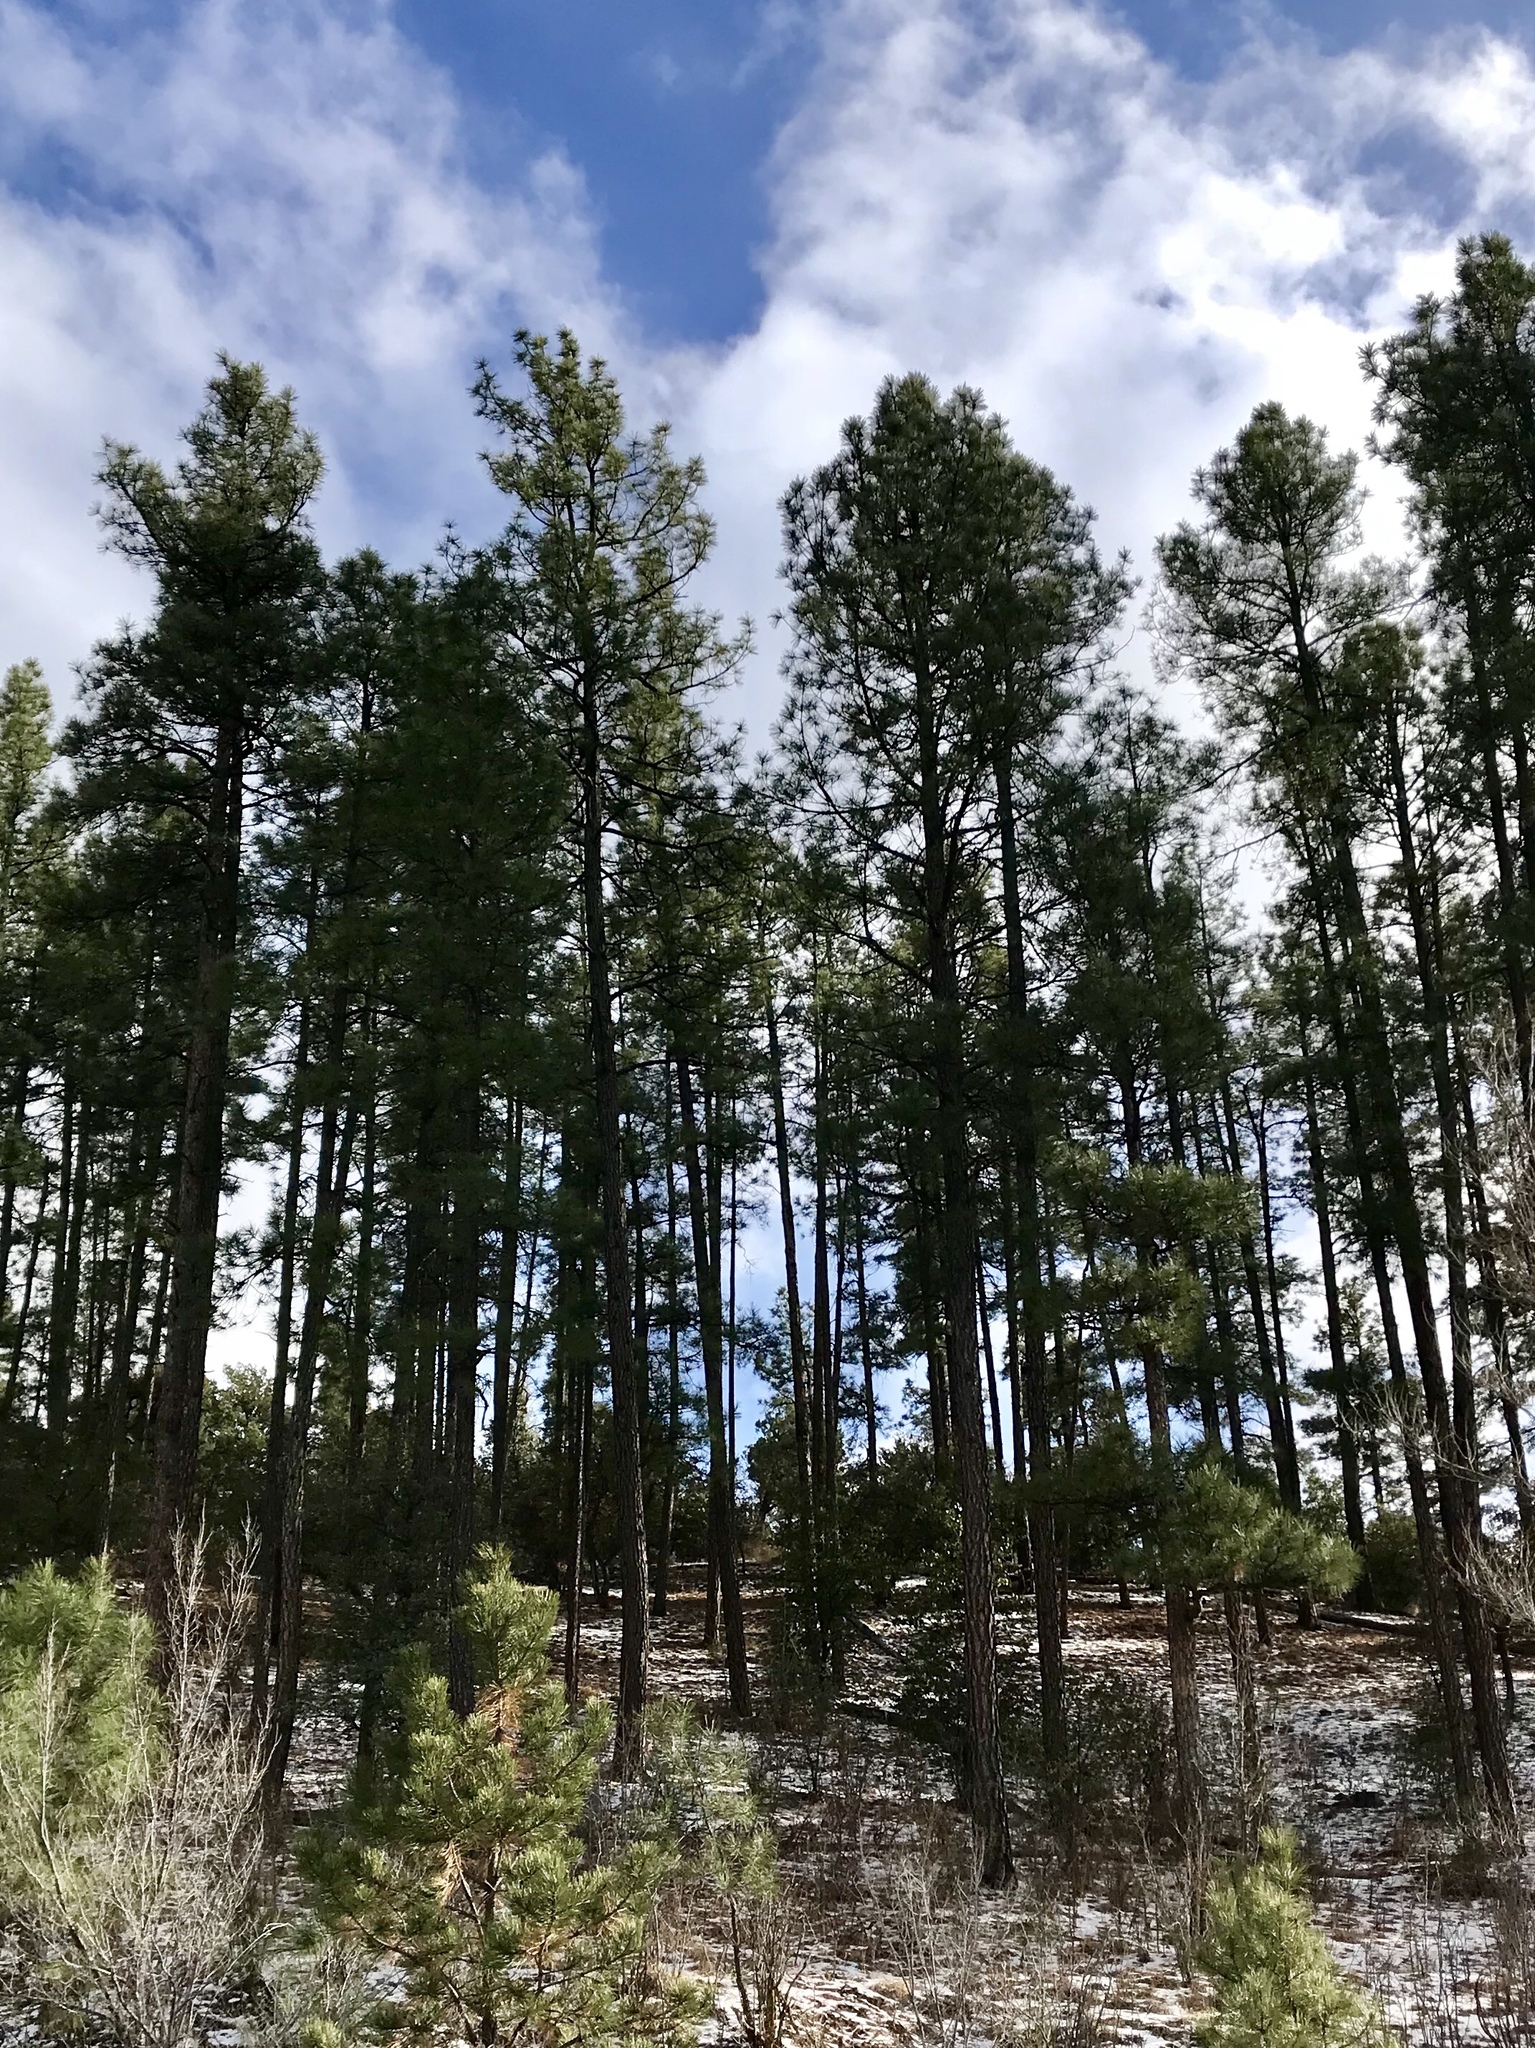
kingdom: Plantae
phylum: Tracheophyta
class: Pinopsida
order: Pinales
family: Pinaceae
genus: Pinus
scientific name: Pinus ponderosa
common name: Western yellow-pine
